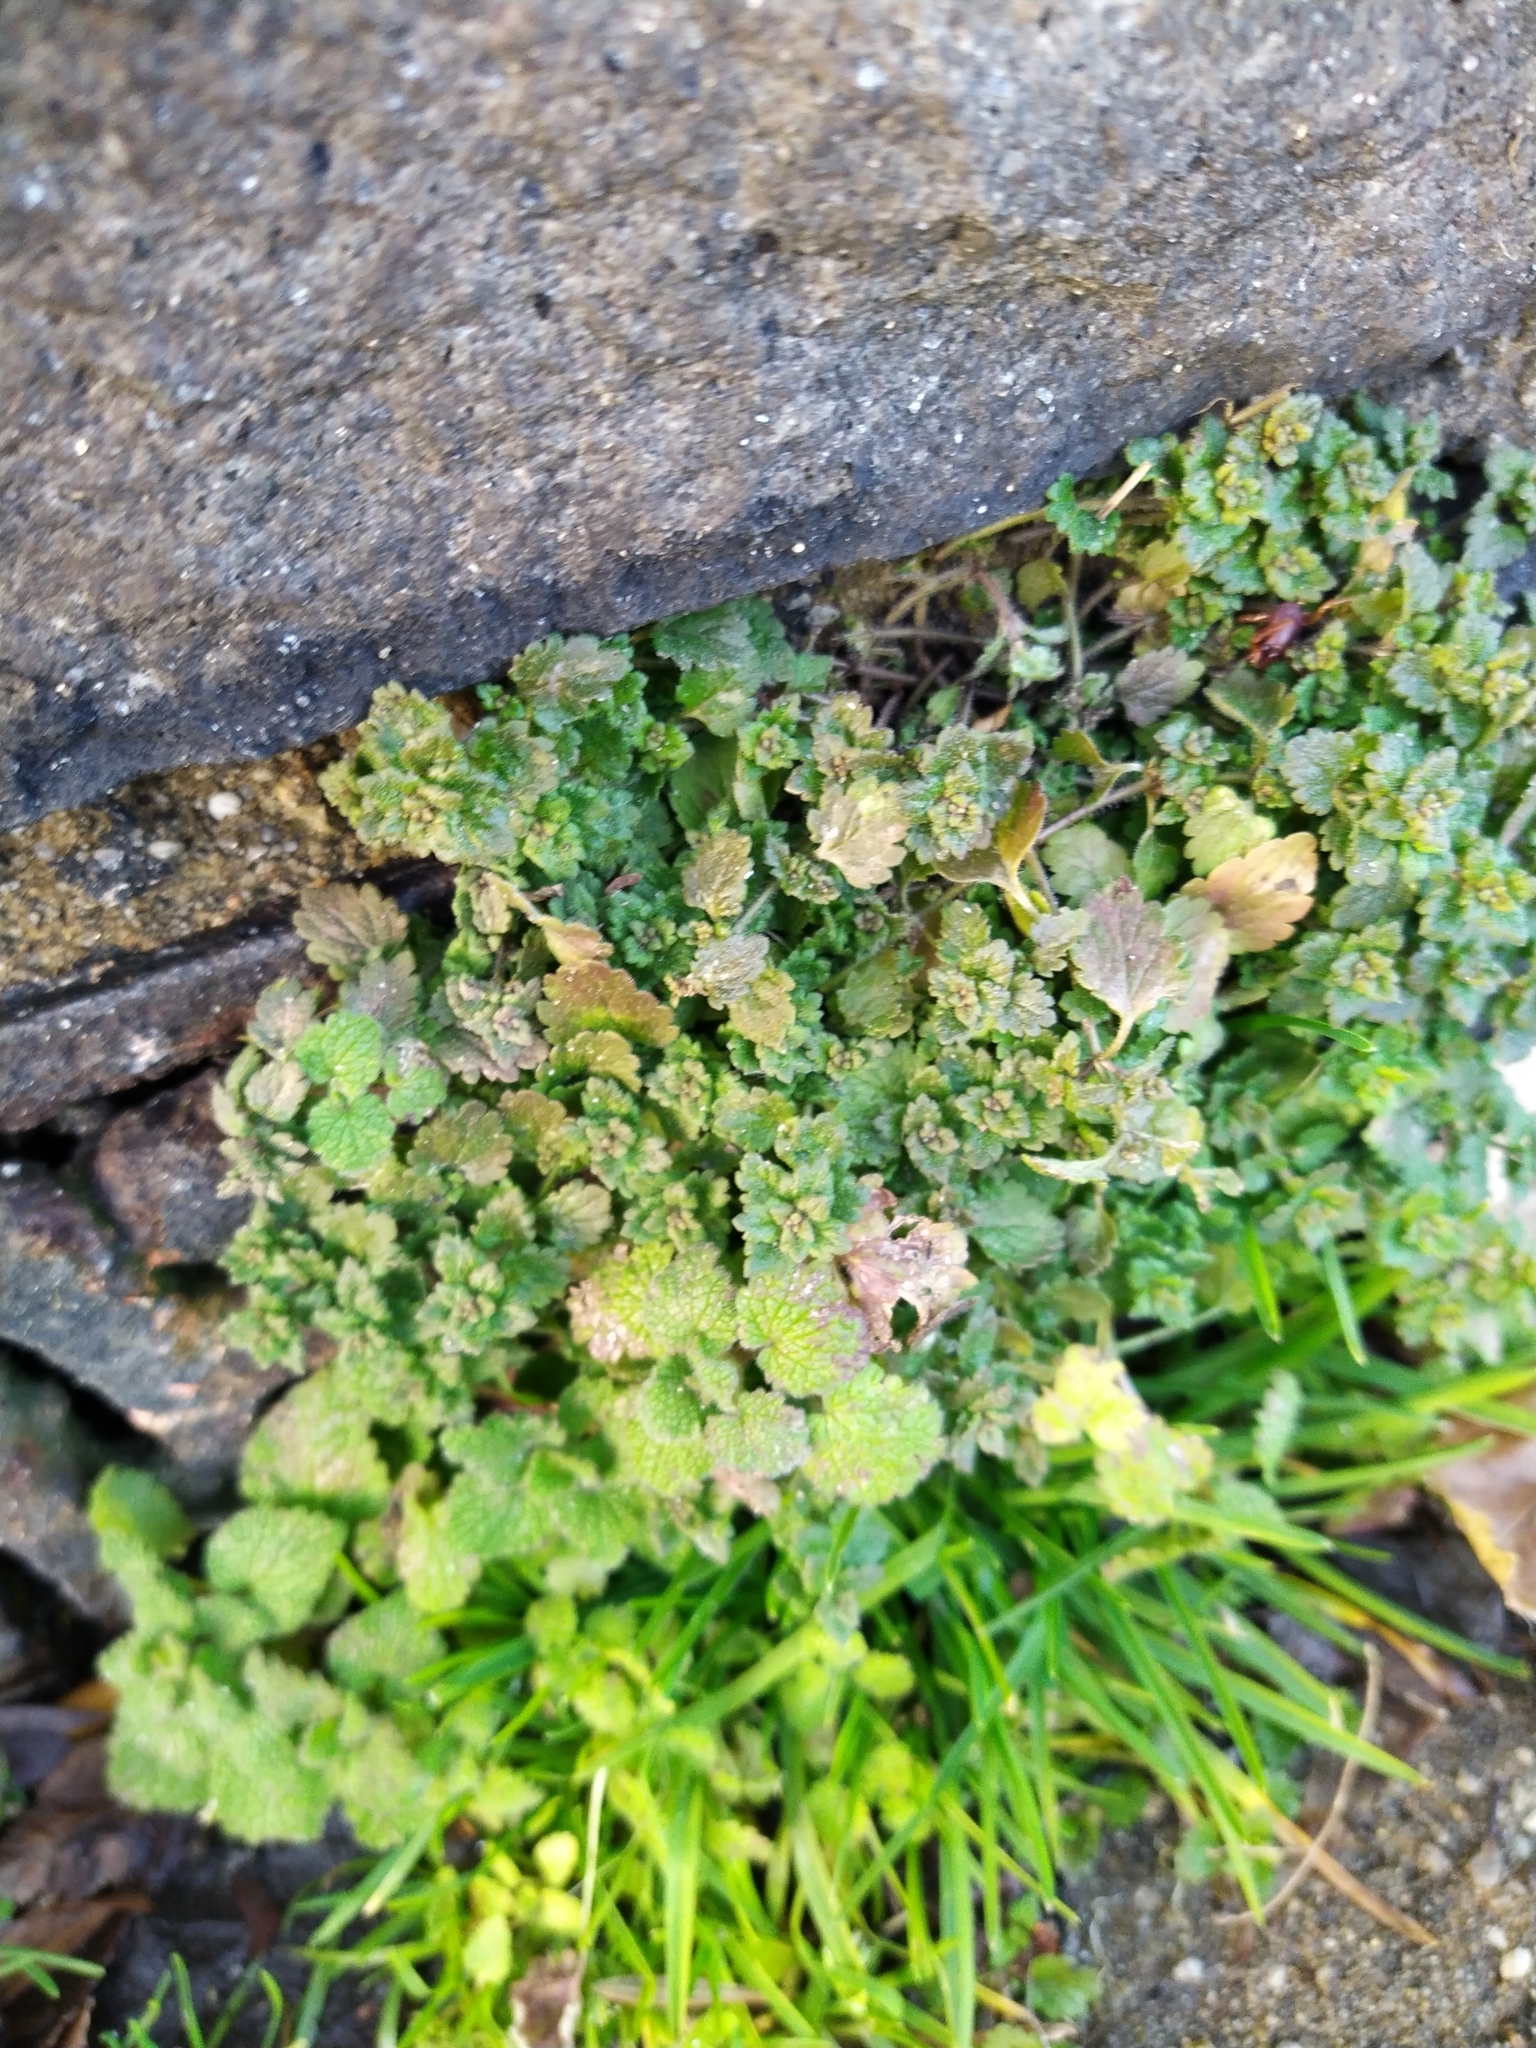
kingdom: Plantae
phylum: Tracheophyta
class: Magnoliopsida
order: Lamiales
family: Plantaginaceae
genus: Veronica
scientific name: Veronica polita
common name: Grey field-speedwell
